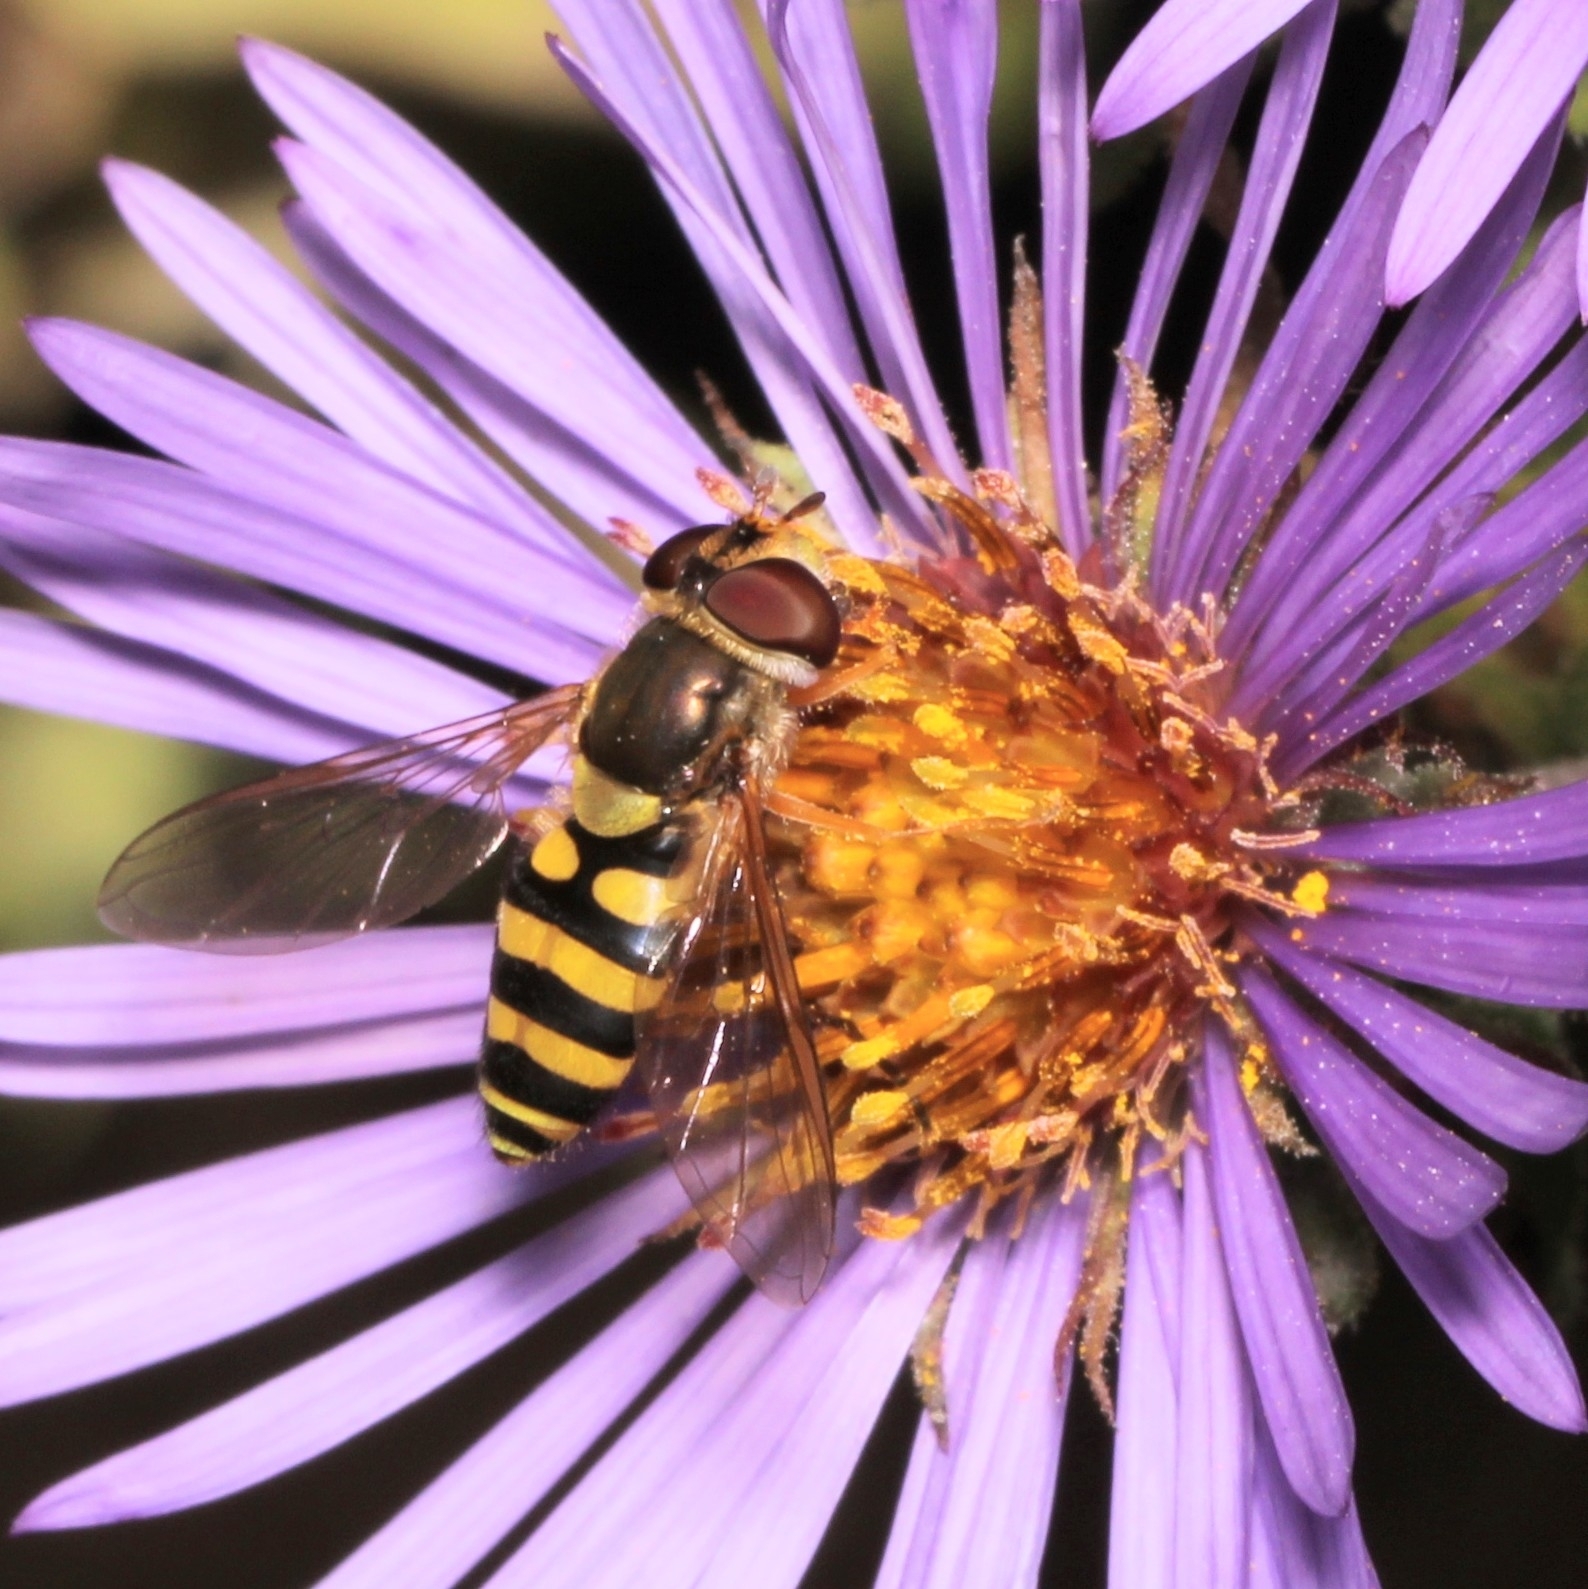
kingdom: Animalia
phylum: Arthropoda
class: Insecta
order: Diptera
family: Syrphidae
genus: Syrphus
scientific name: Syrphus
